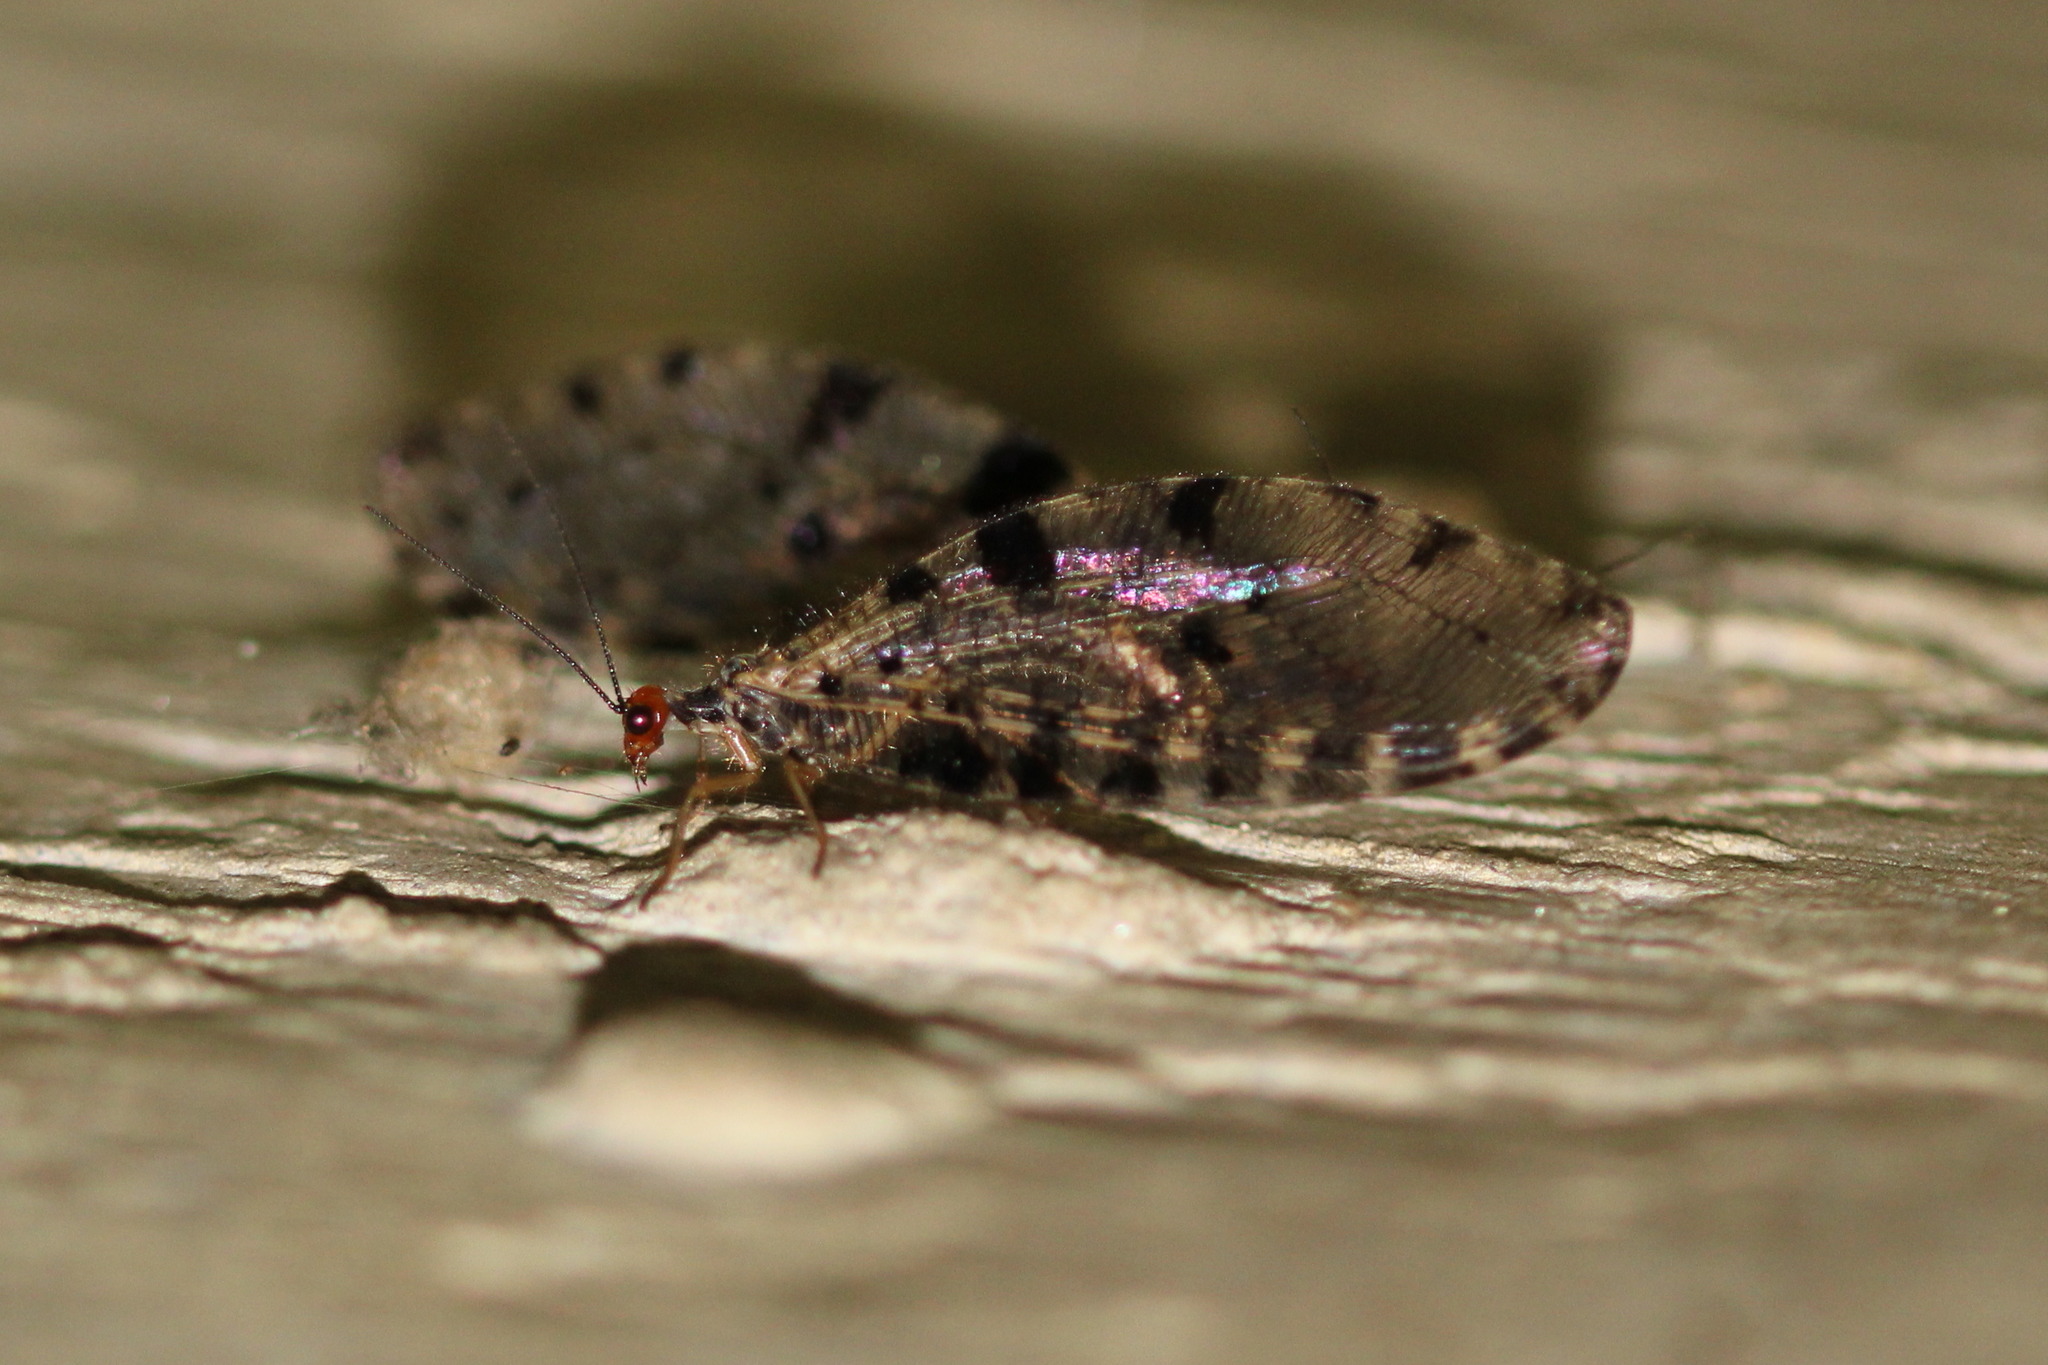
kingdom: Animalia
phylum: Arthropoda
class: Insecta
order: Neuroptera
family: Osmylidae
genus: Osmylus
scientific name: Osmylus fulvicephalus
